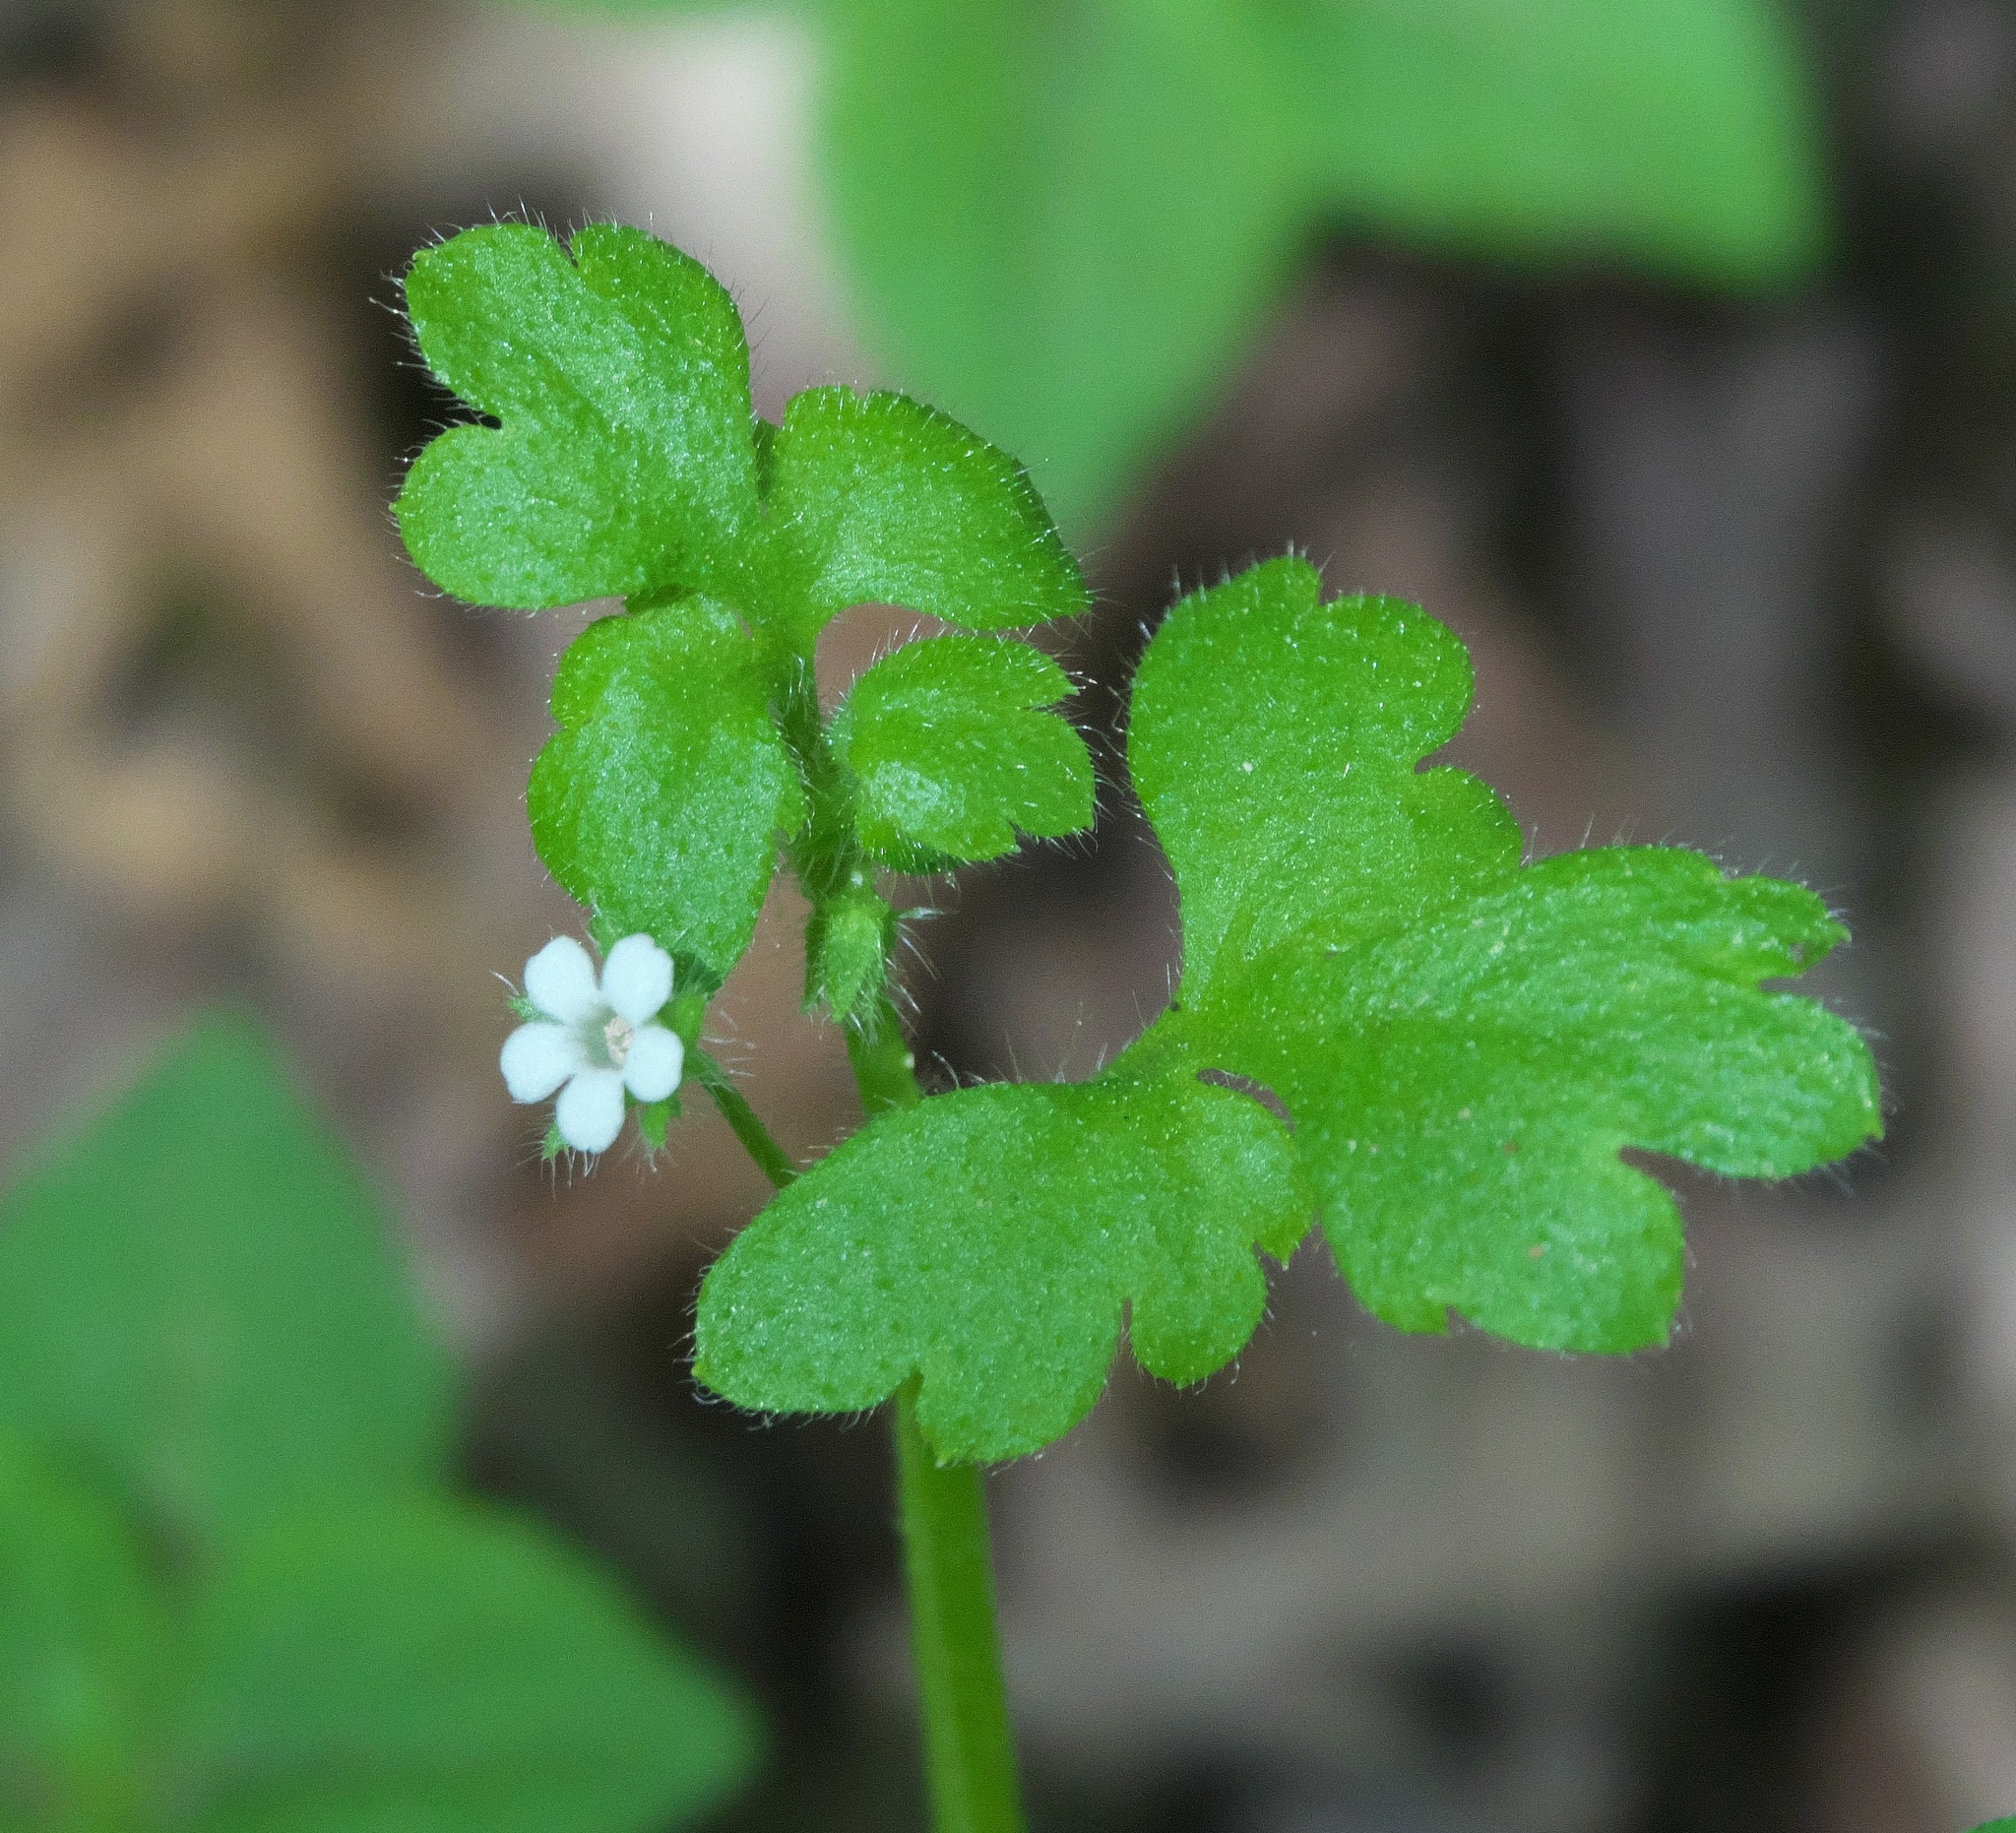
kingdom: Plantae
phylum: Tracheophyta
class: Magnoliopsida
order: Boraginales
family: Hydrophyllaceae
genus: Nemophila
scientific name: Nemophila aphylla
